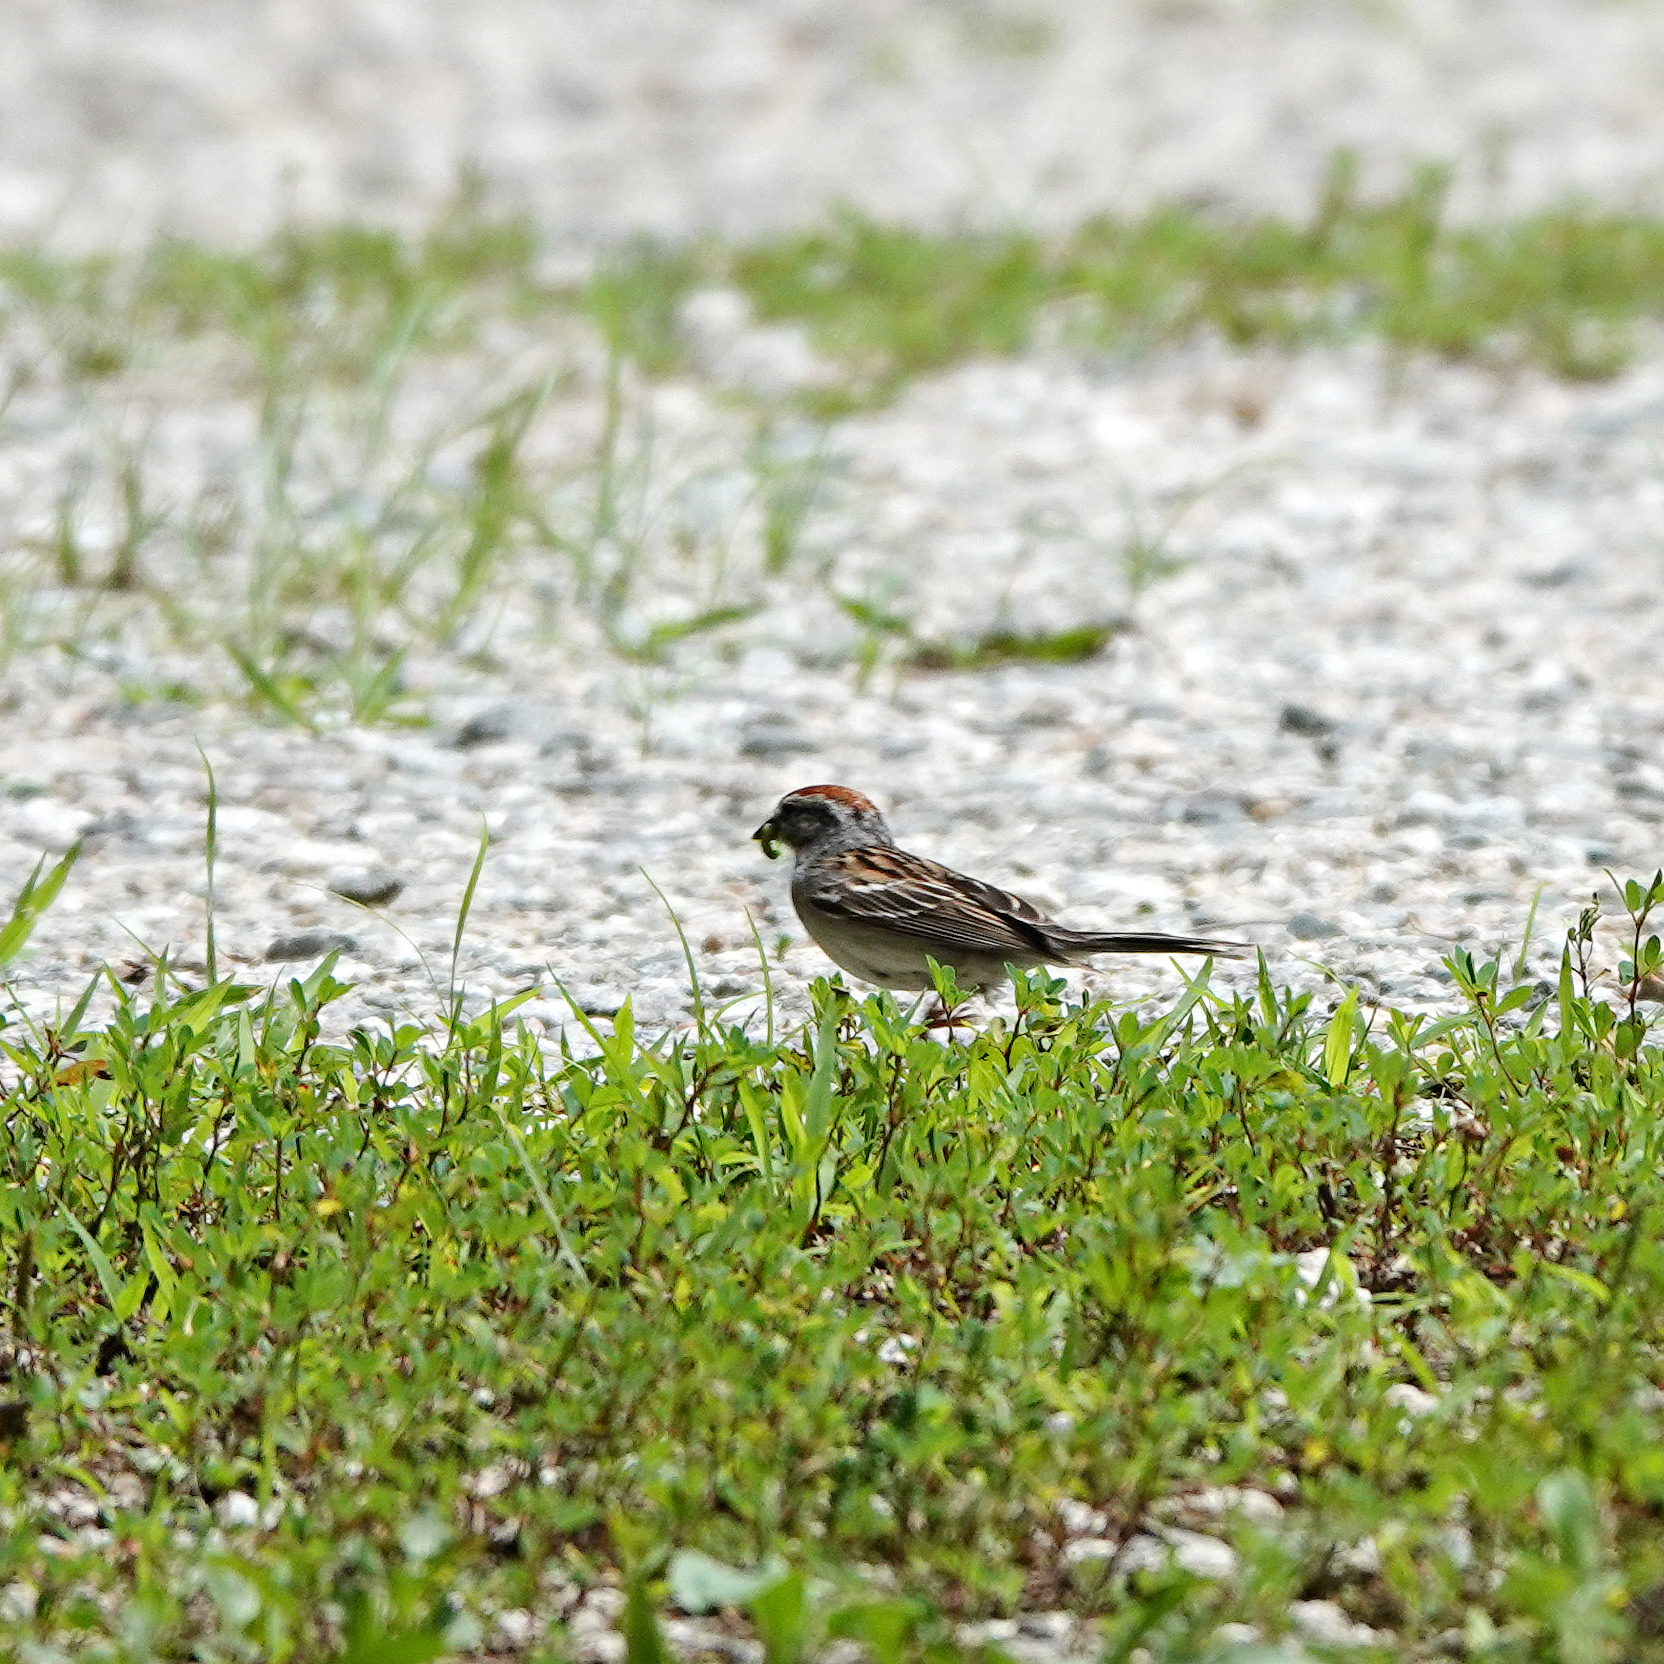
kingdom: Animalia
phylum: Chordata
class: Aves
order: Passeriformes
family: Passerellidae
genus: Spizella
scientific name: Spizella passerina
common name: Chipping sparrow
